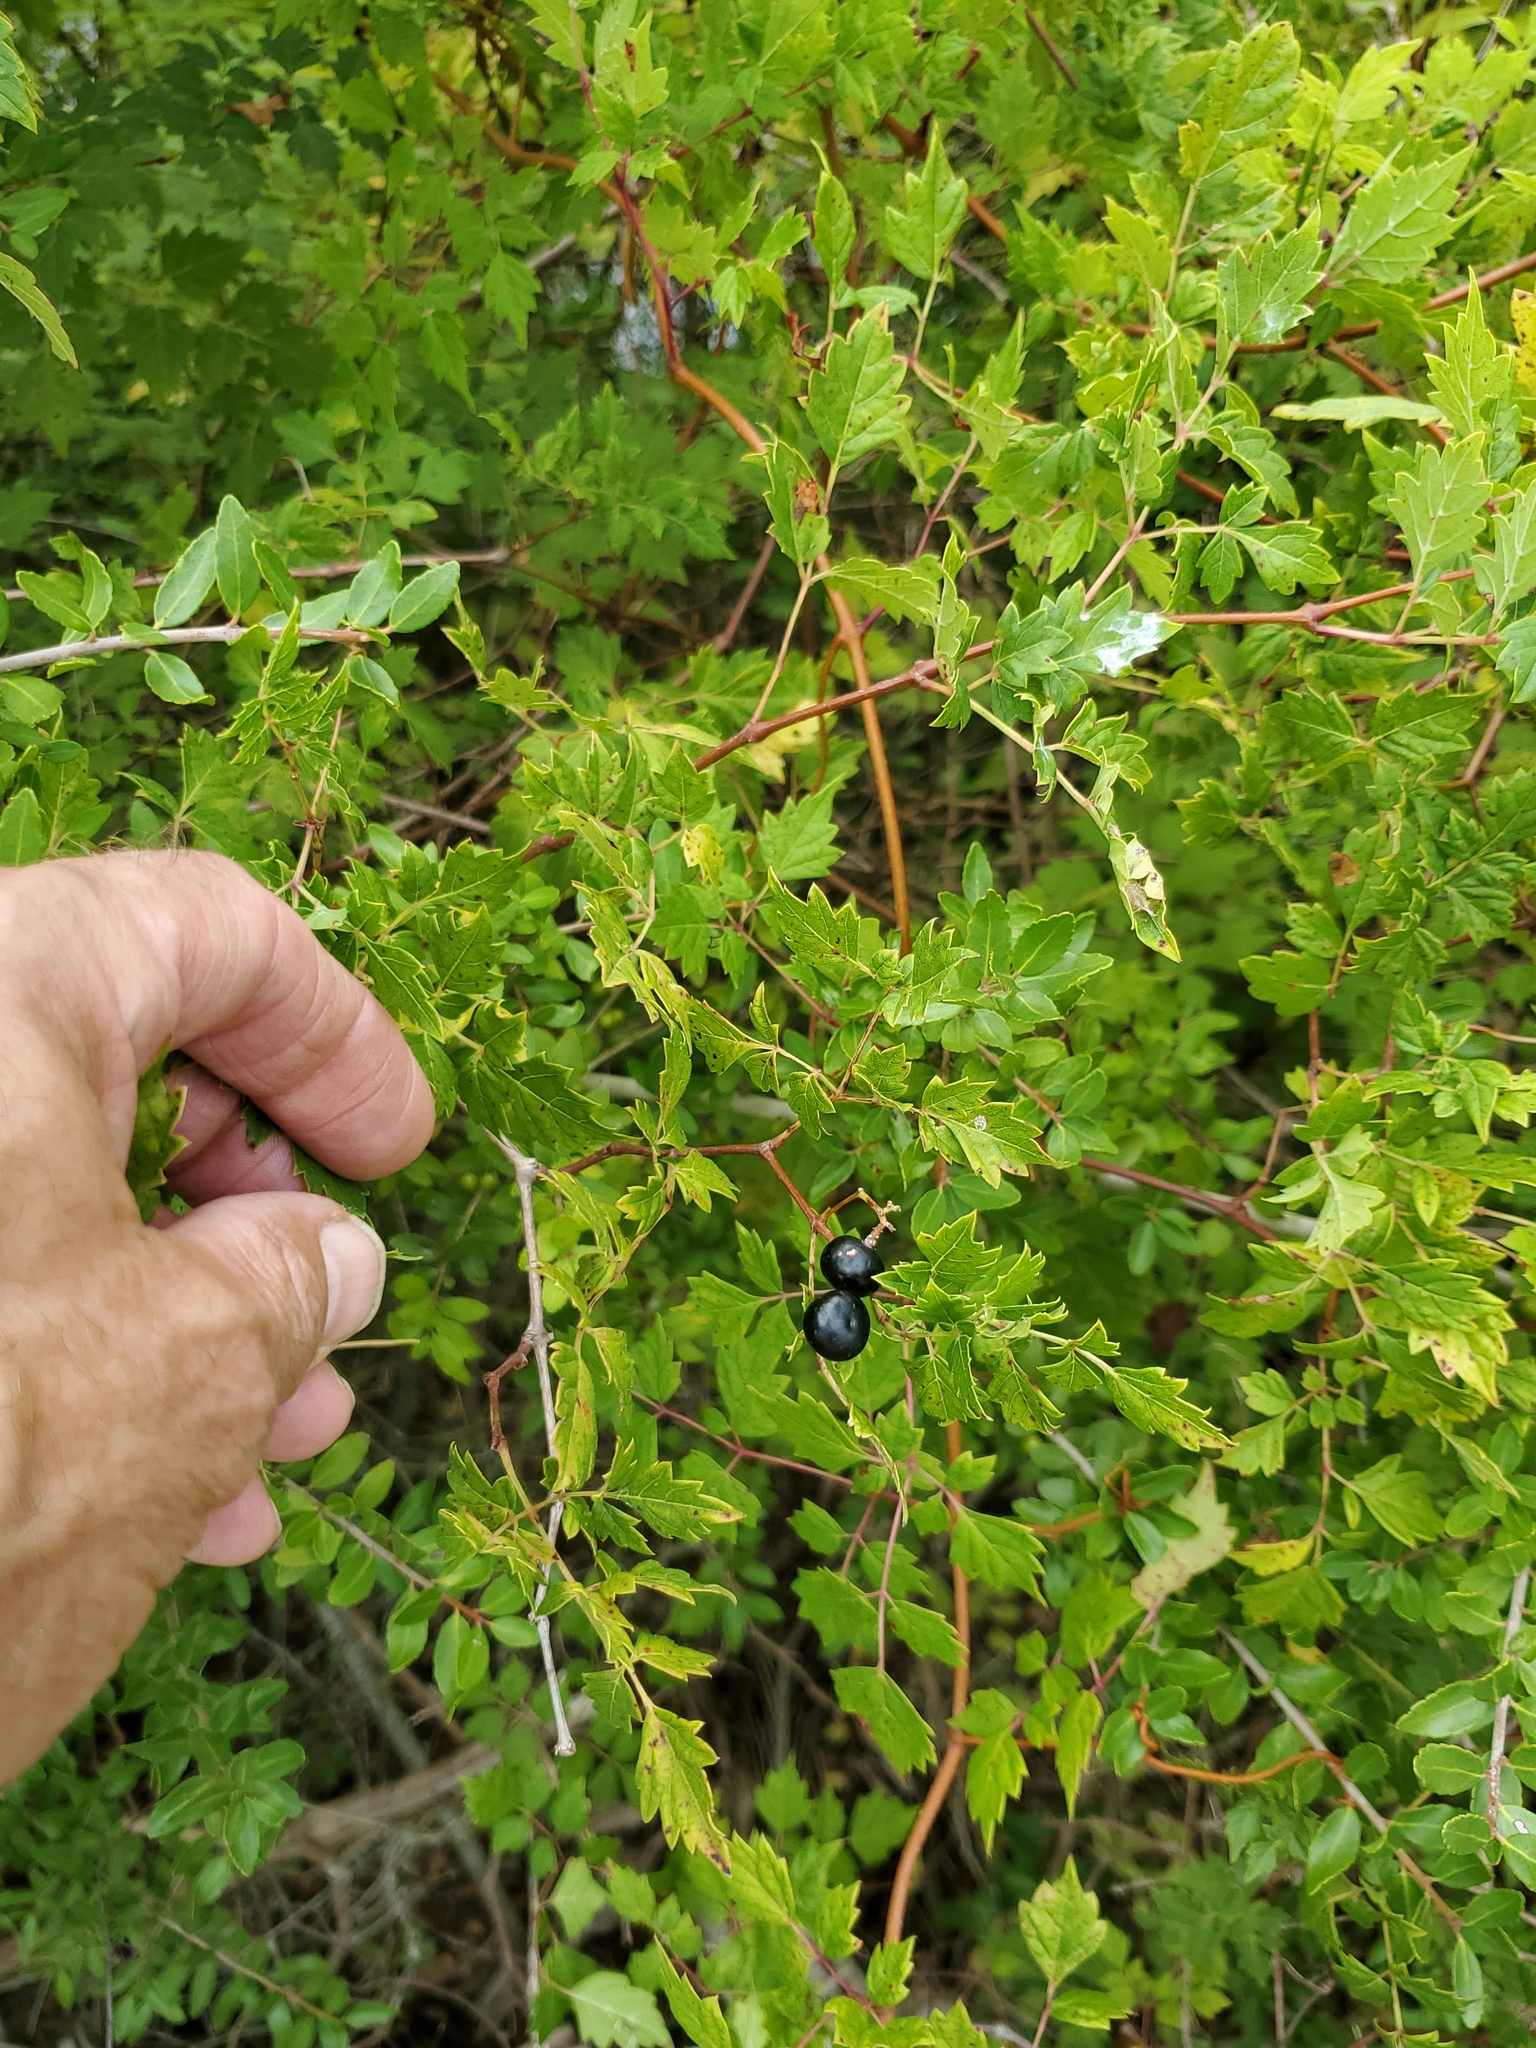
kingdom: Plantae
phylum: Tracheophyta
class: Magnoliopsida
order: Vitales
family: Vitaceae
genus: Nekemias
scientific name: Nekemias arborea
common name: Peppervine
